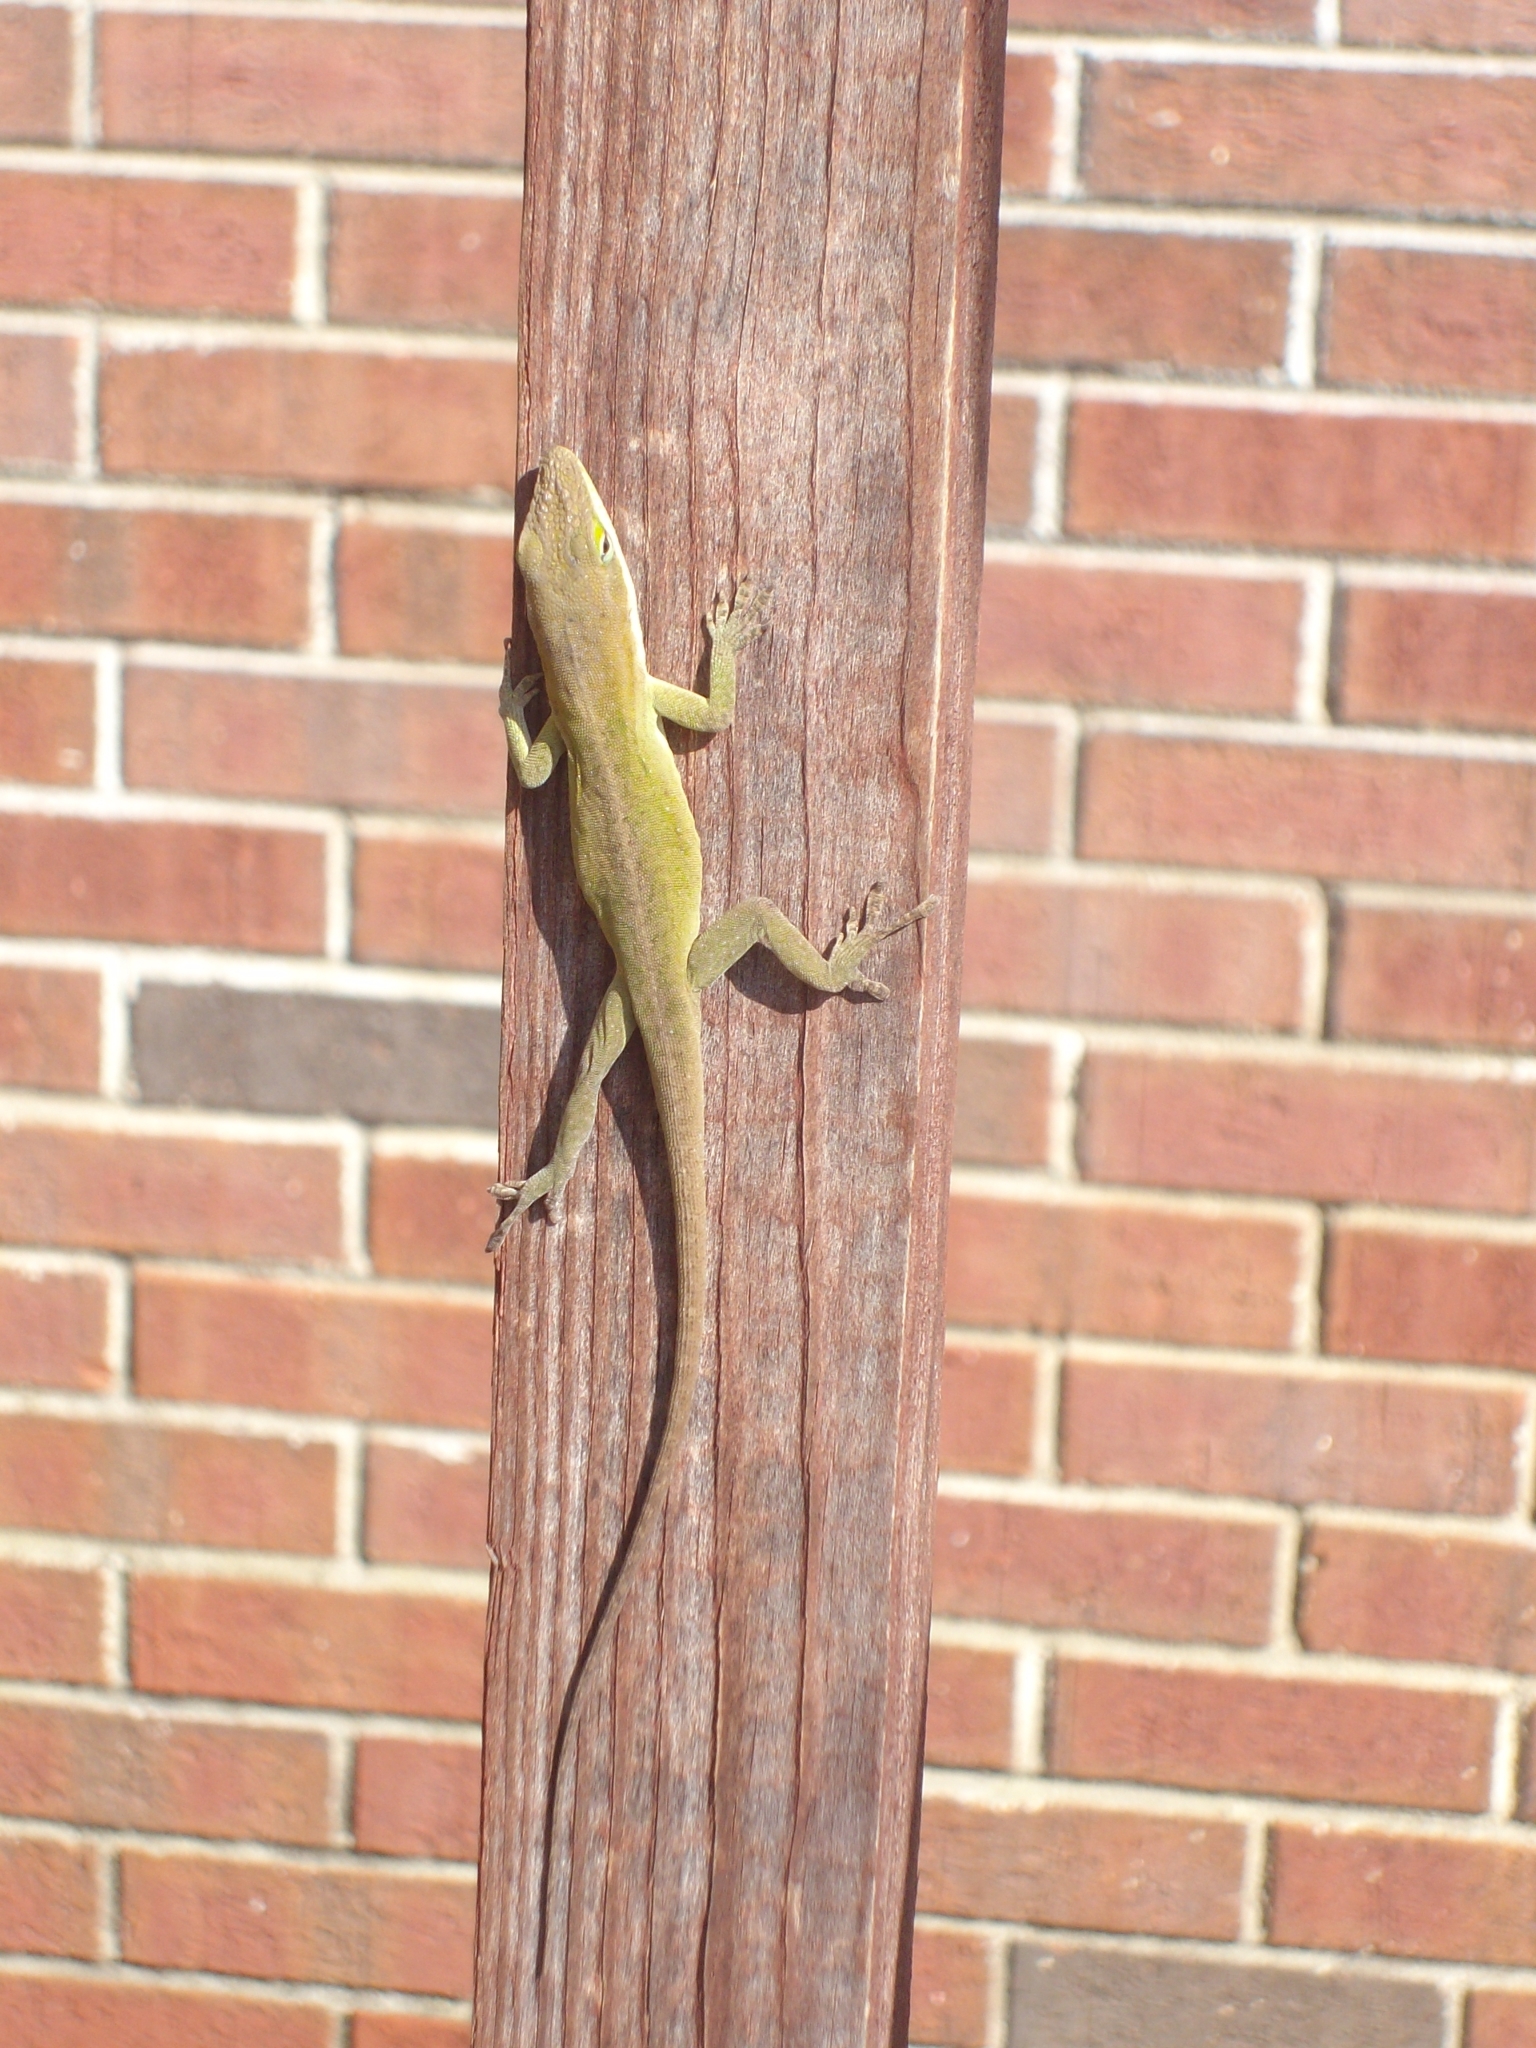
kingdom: Animalia
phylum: Chordata
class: Squamata
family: Dactyloidae
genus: Anolis
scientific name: Anolis carolinensis
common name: Green anole
